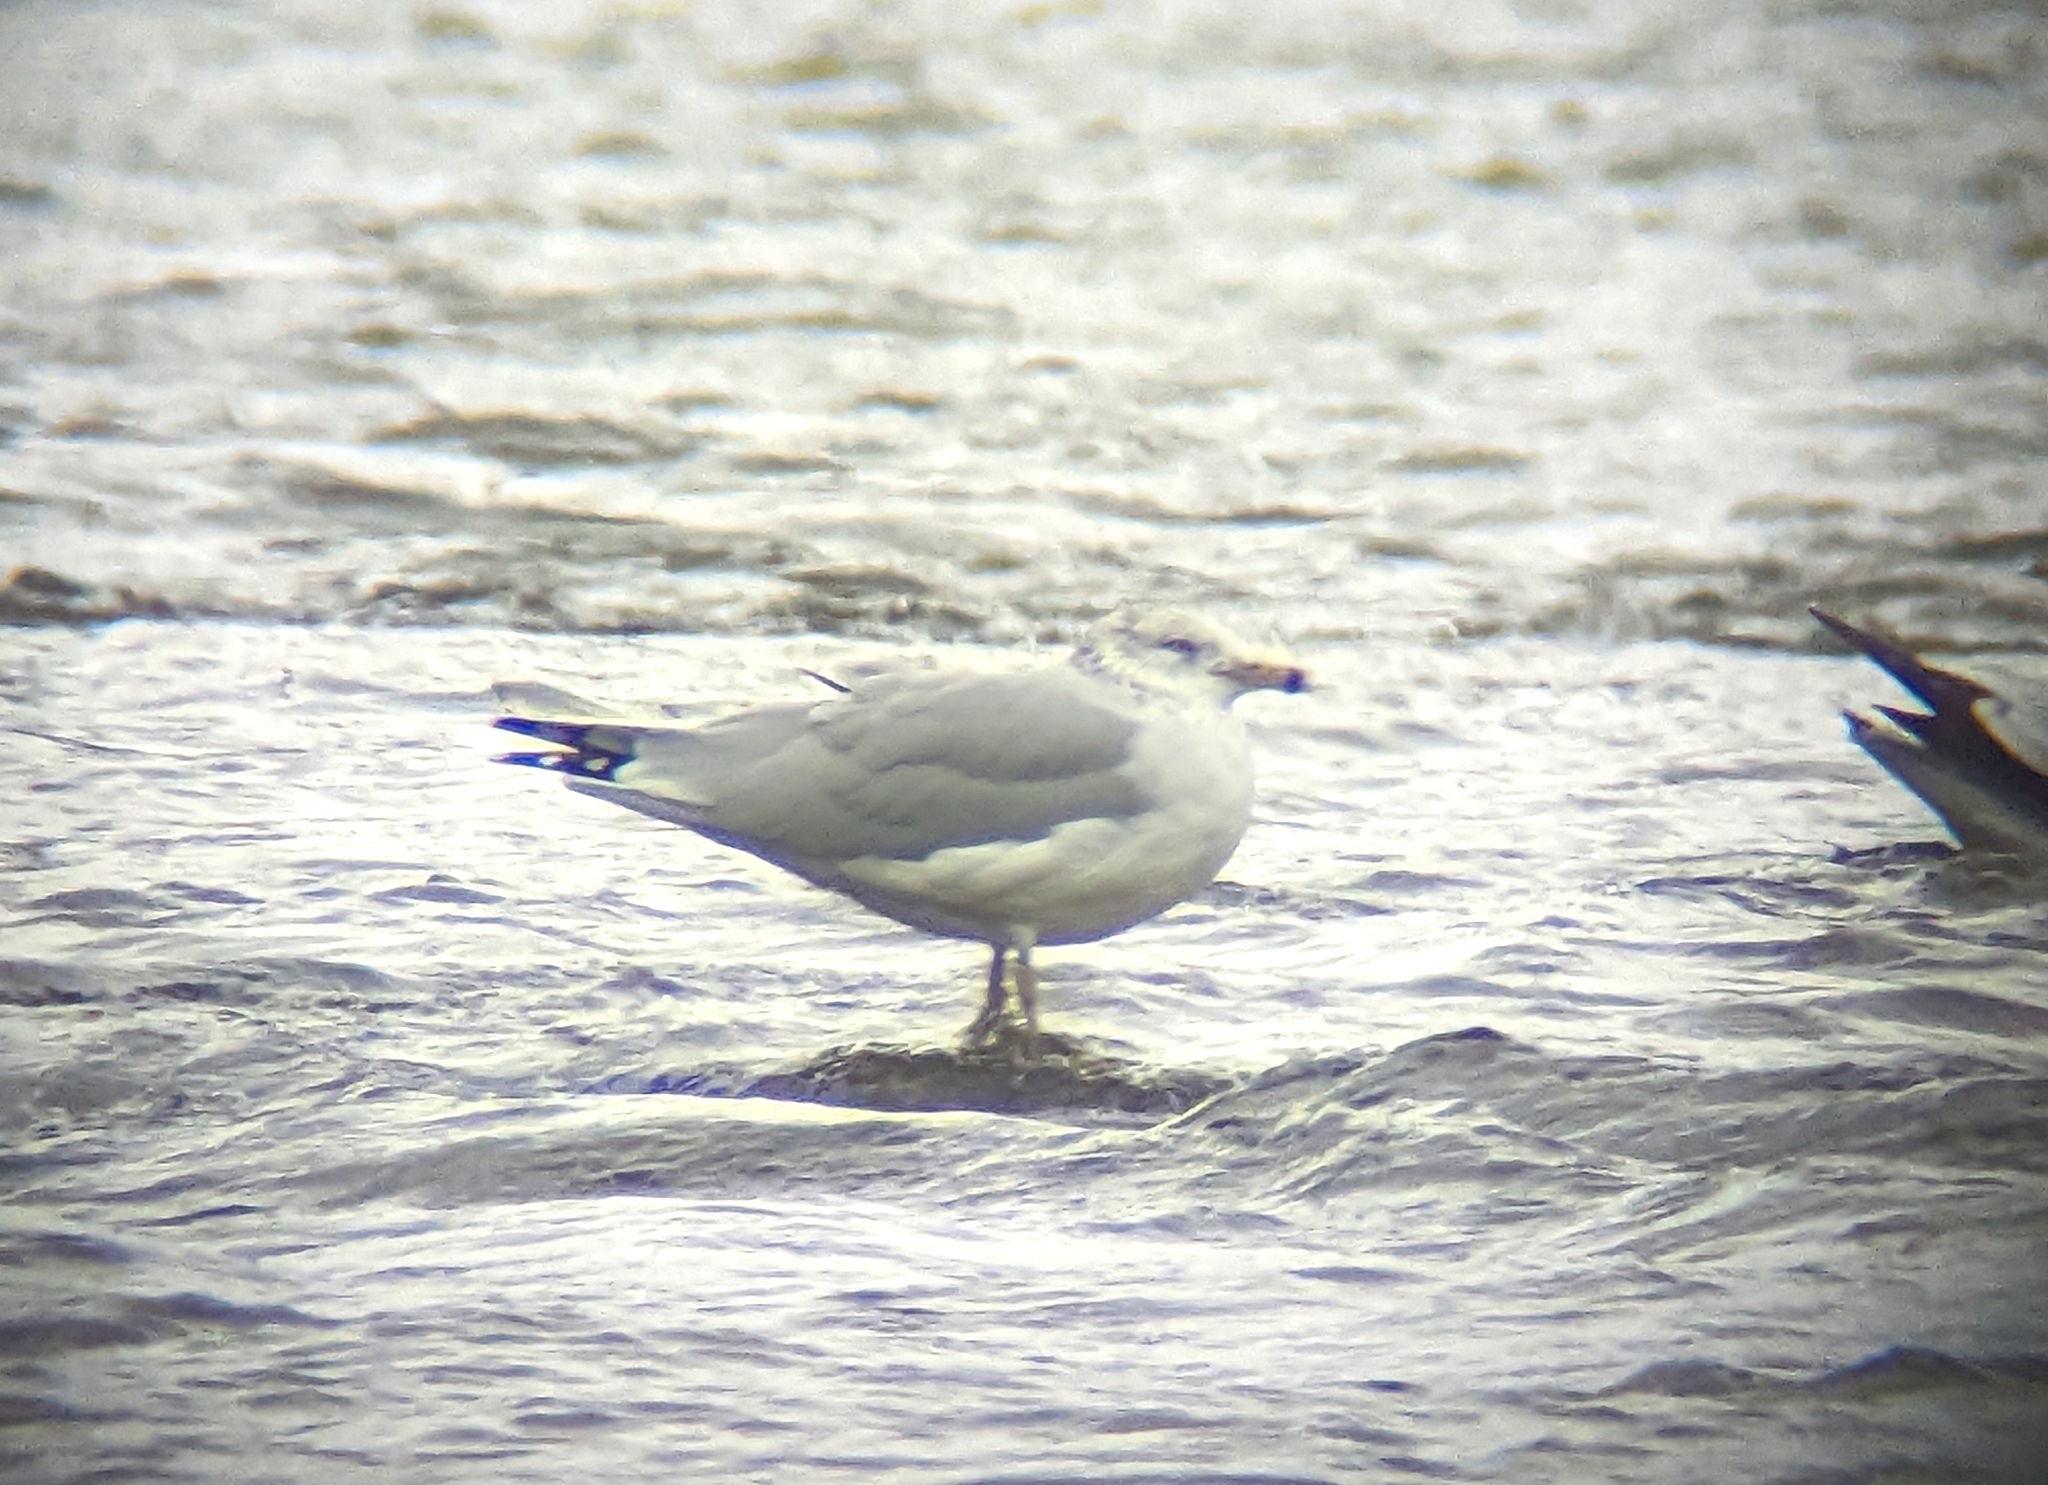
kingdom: Animalia
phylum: Chordata
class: Aves
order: Charadriiformes
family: Laridae
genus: Larus
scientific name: Larus delawarensis
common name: Ring-billed gull
